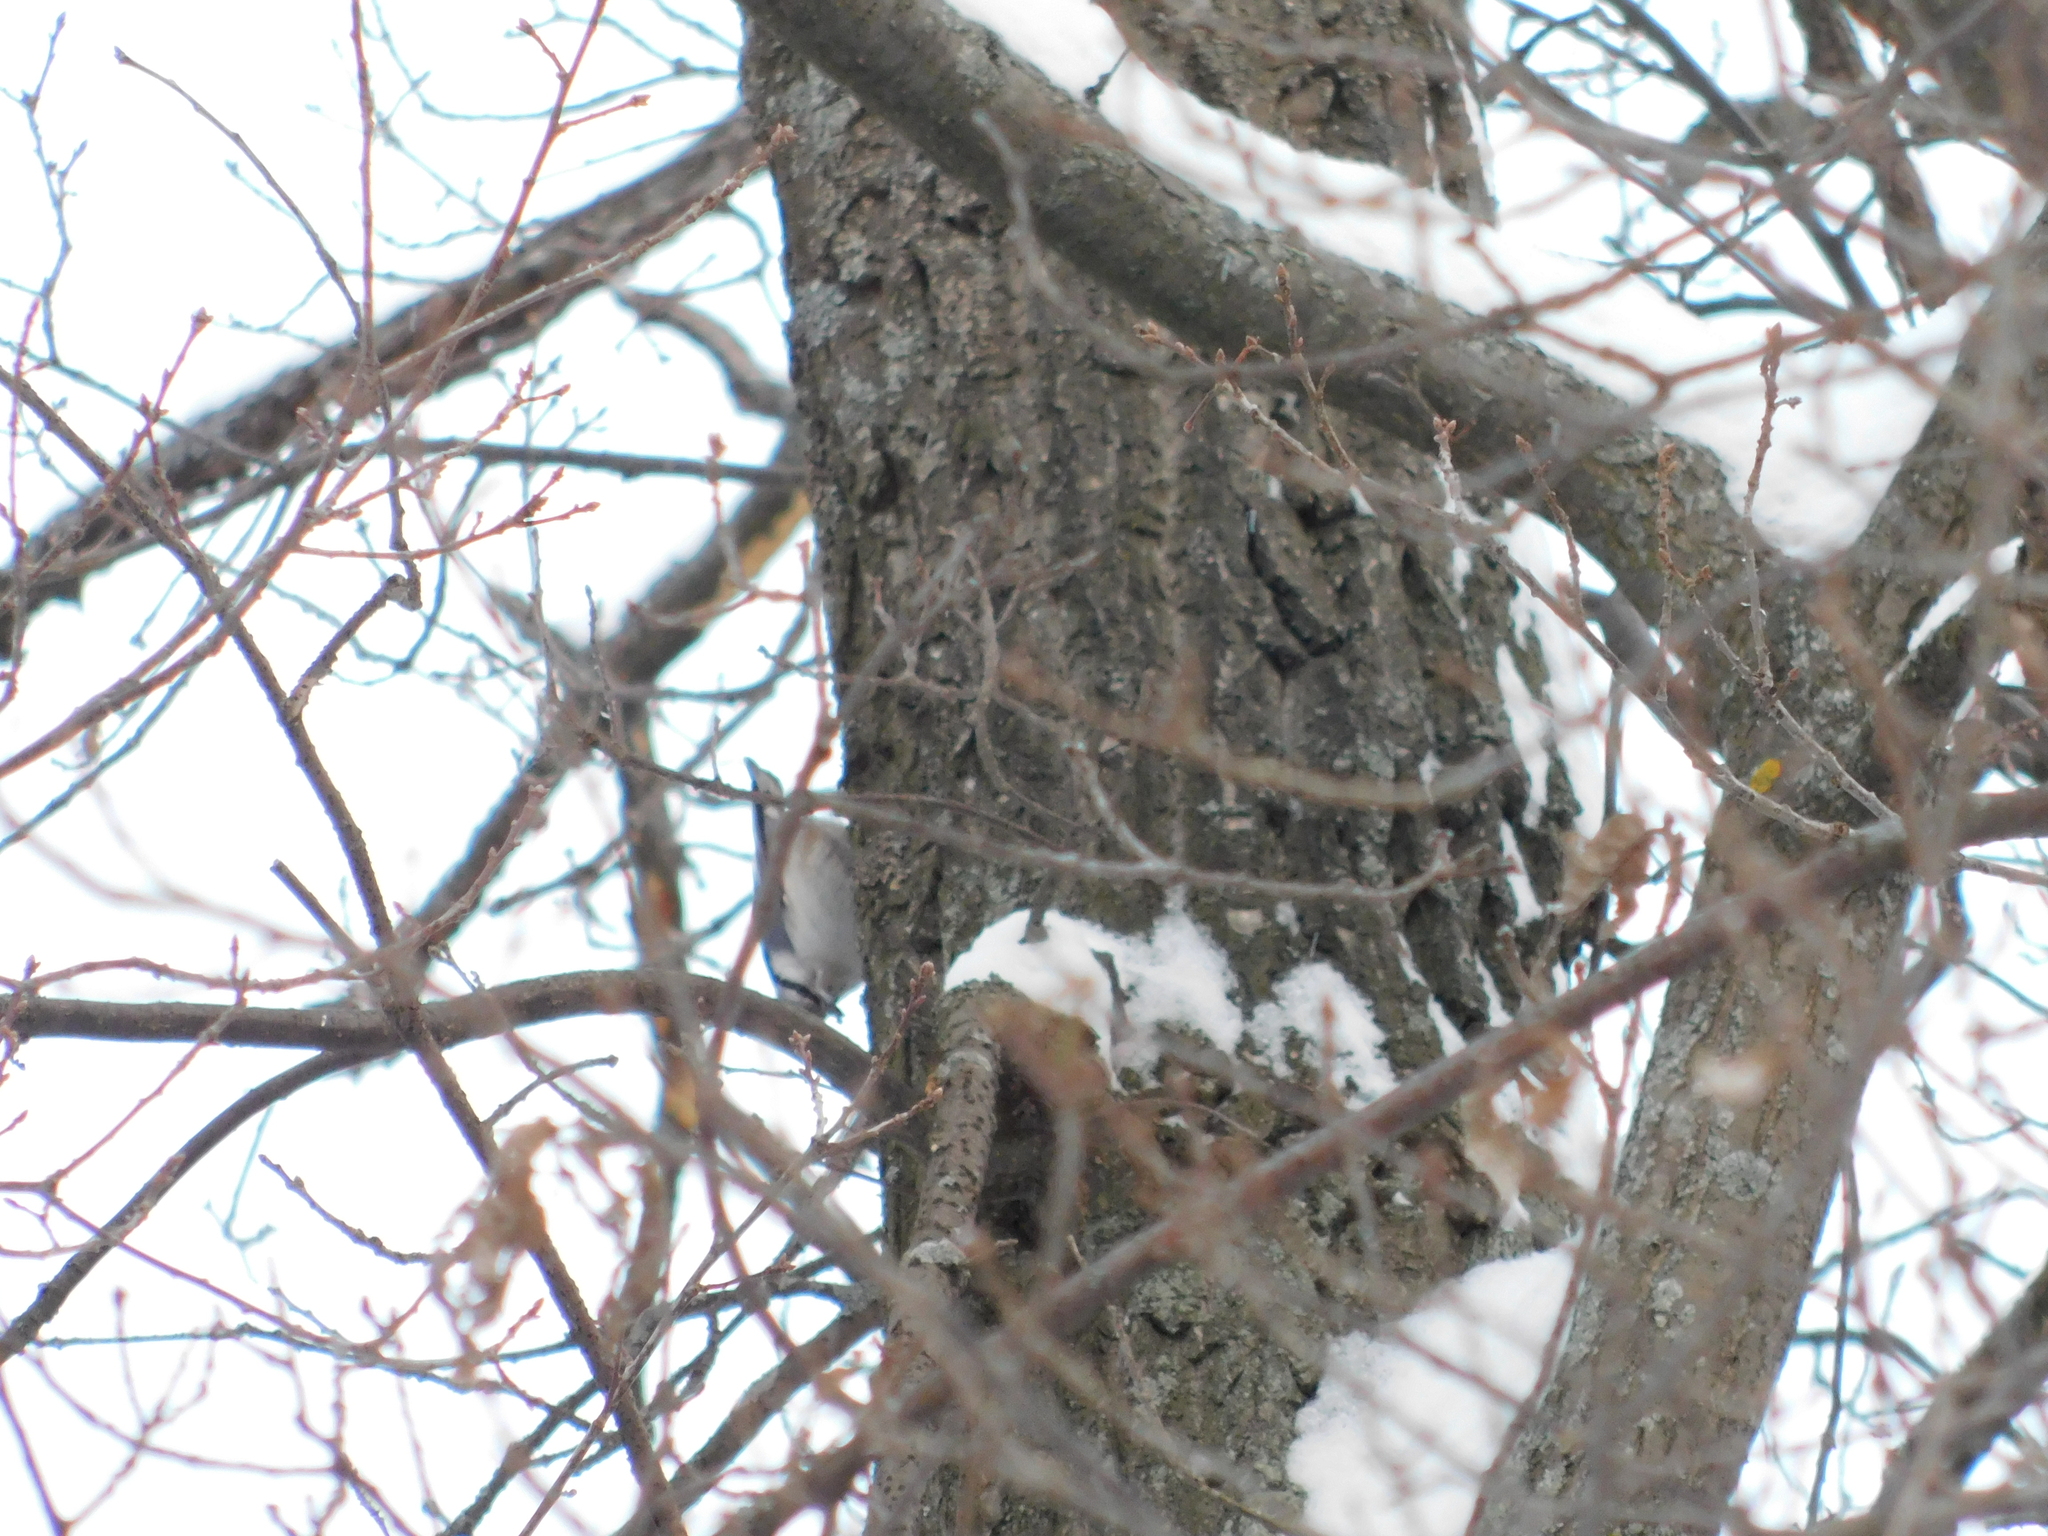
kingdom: Animalia
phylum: Chordata
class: Aves
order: Passeriformes
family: Sittidae
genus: Sitta
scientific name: Sitta europaea
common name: Eurasian nuthatch
